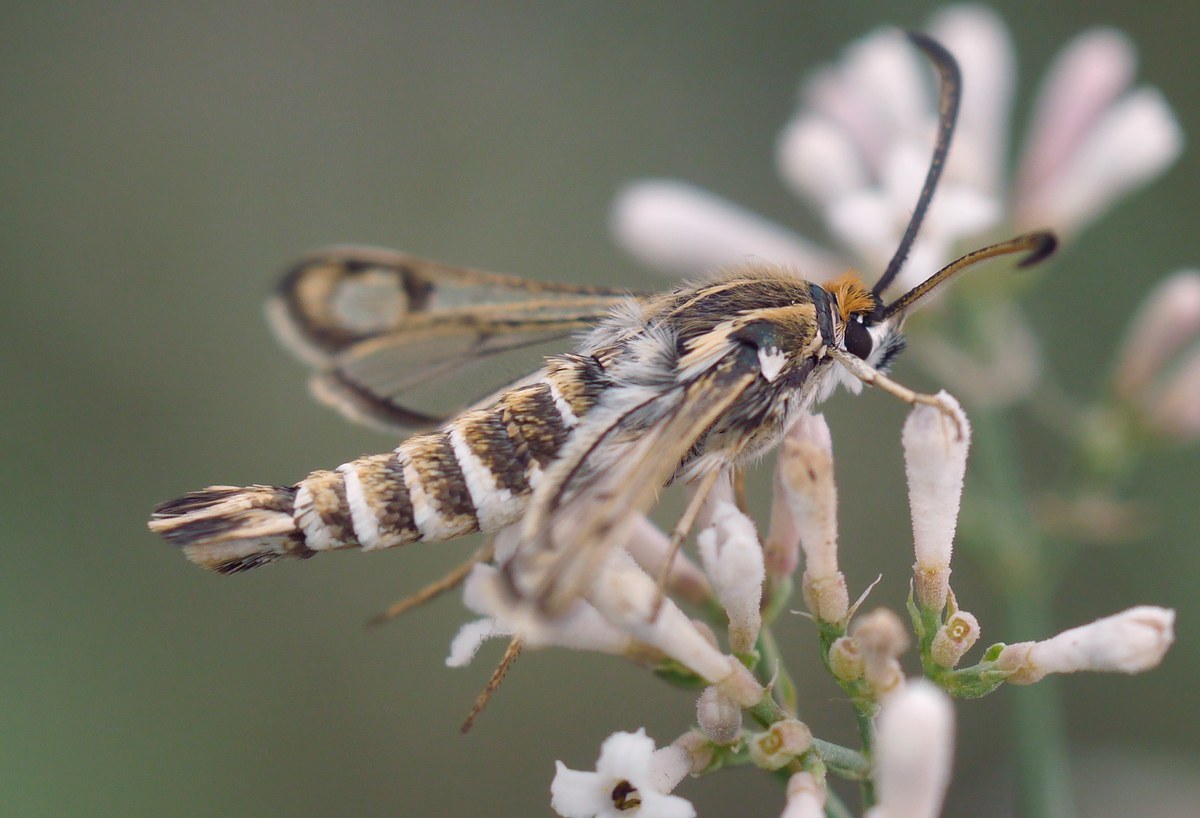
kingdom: Animalia
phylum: Arthropoda
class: Insecta
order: Lepidoptera
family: Sesiidae
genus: Chamaesphecia
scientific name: Chamaesphecia bibioniformis
